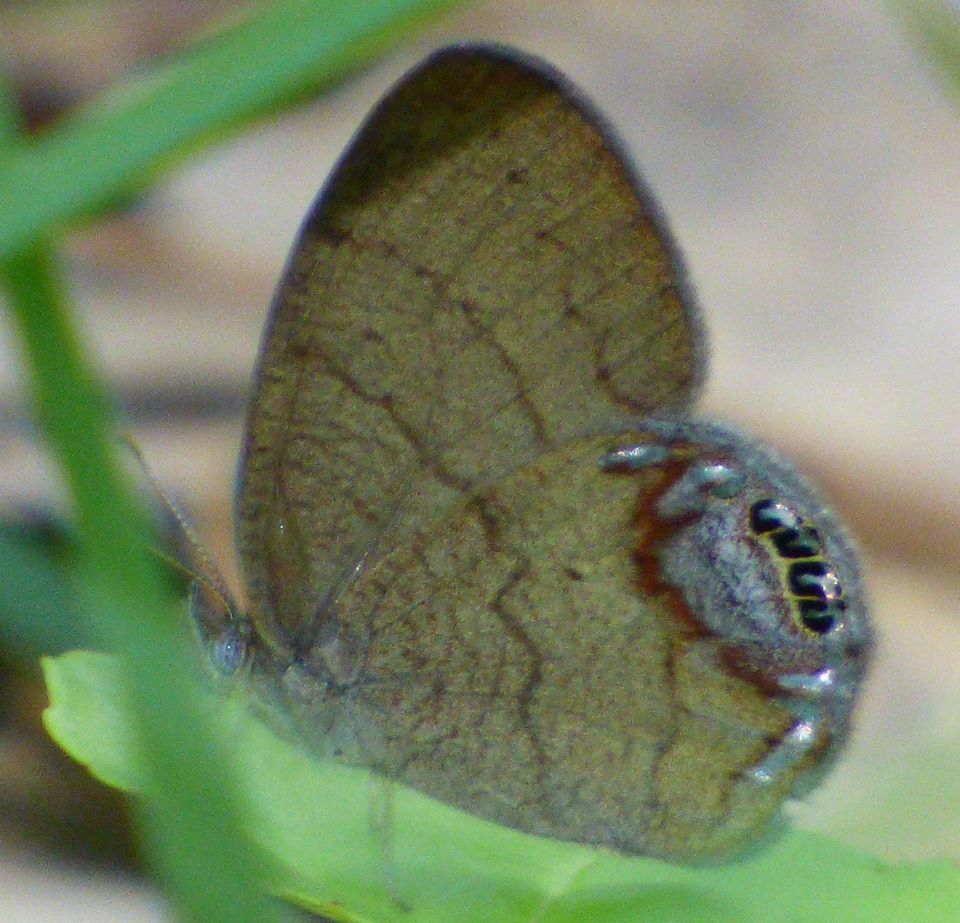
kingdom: Animalia
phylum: Arthropoda
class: Insecta
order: Lepidoptera
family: Nymphalidae
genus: Euptychia
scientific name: Euptychia cornelius
